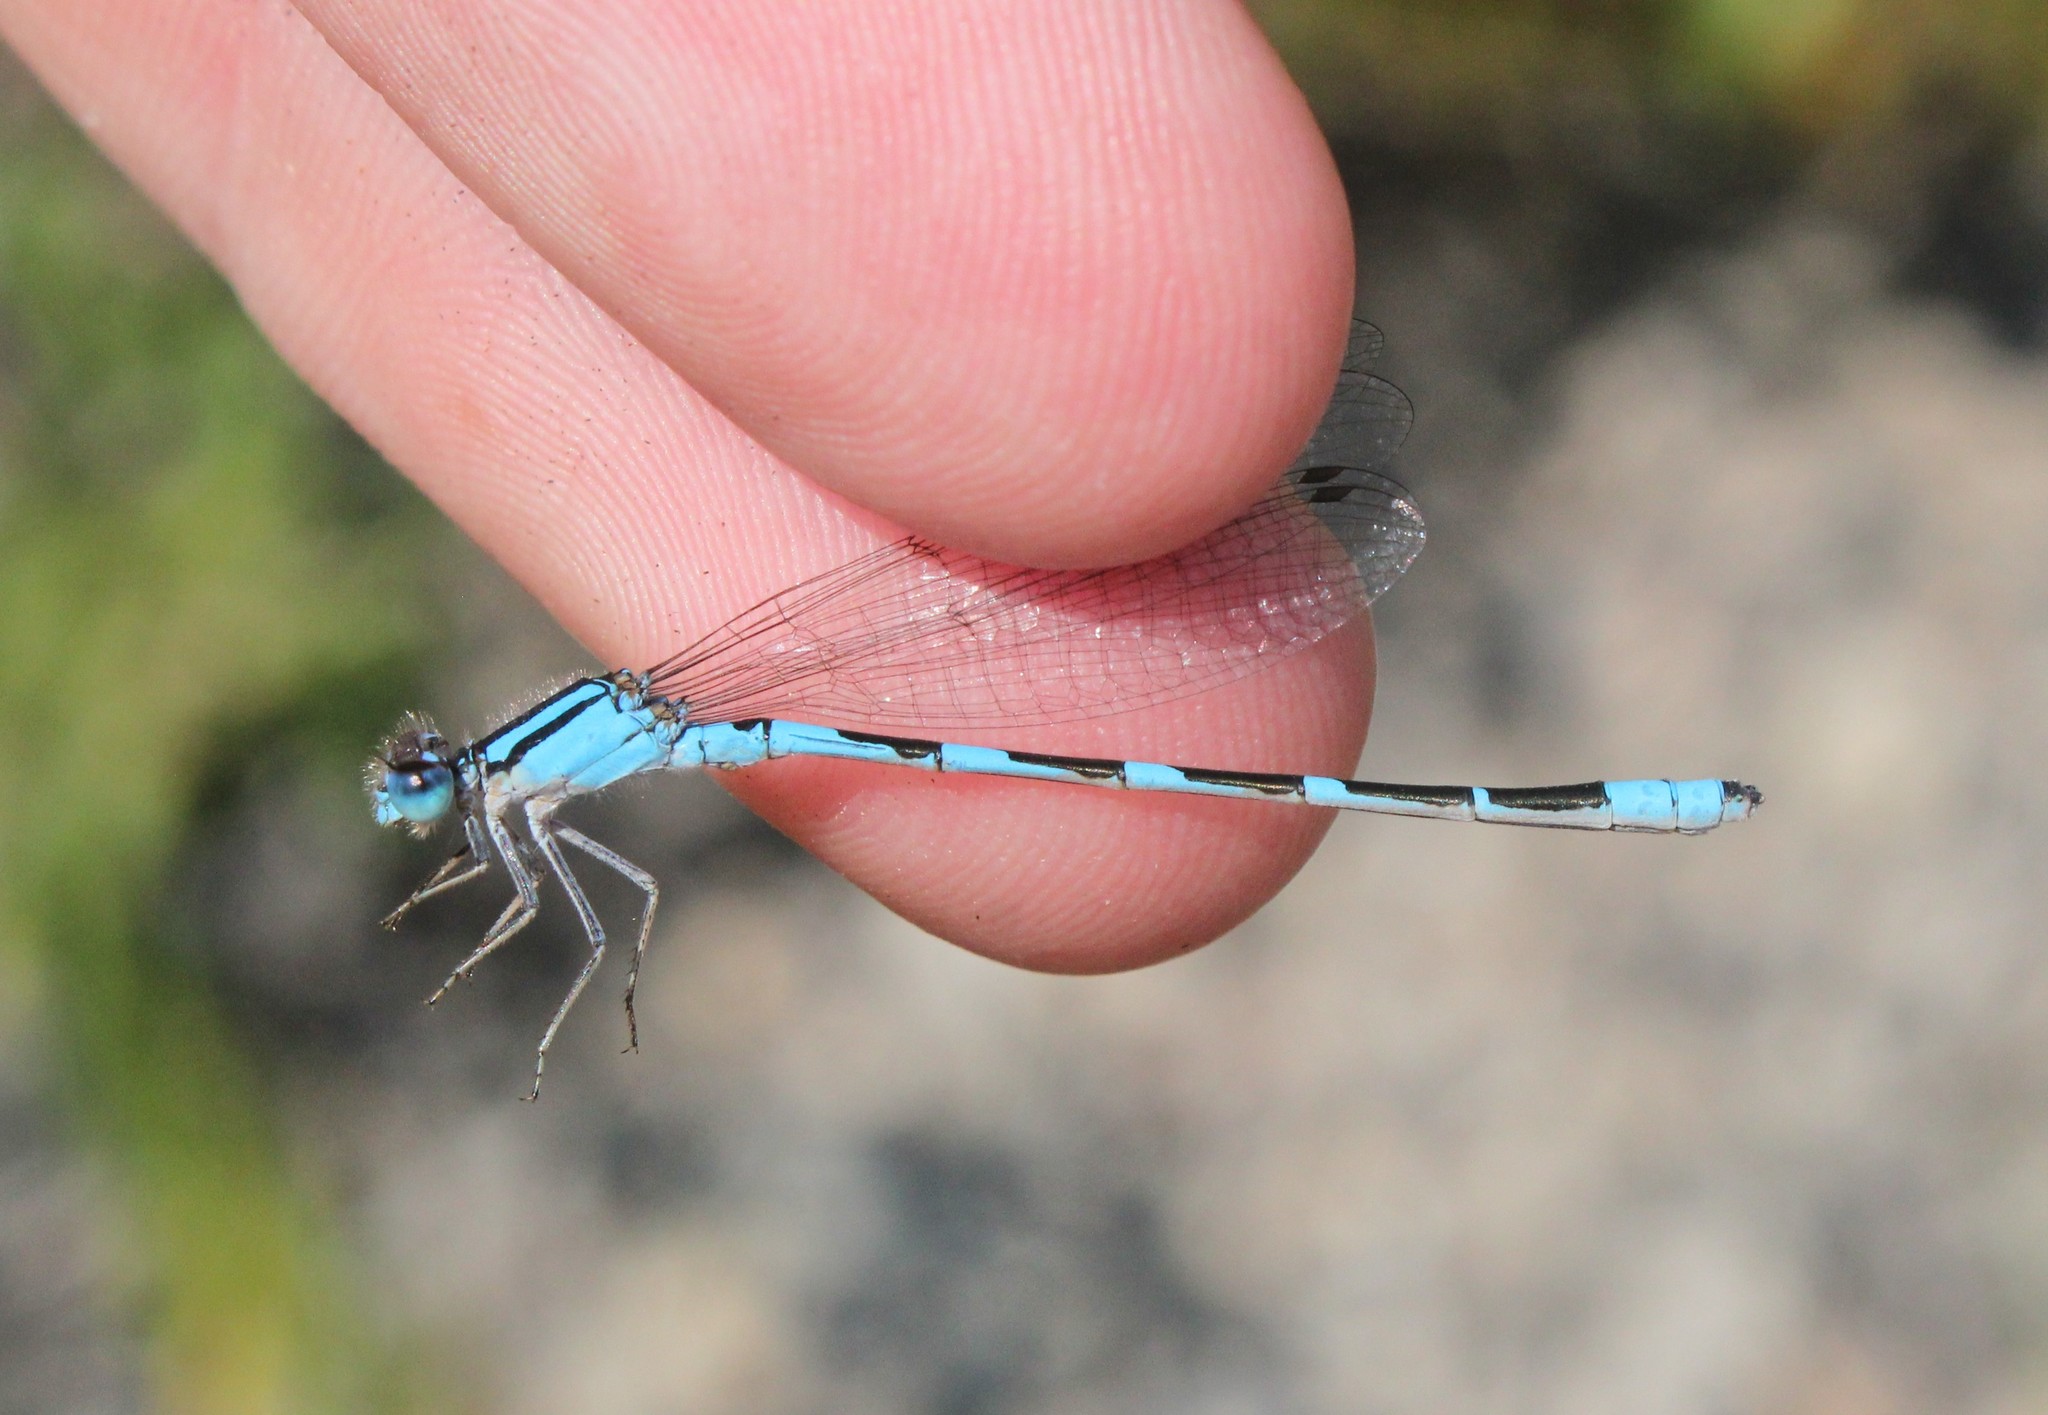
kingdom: Animalia
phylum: Arthropoda
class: Insecta
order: Odonata
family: Coenagrionidae
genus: Enallagma
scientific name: Enallagma carunculatum
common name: Tule bluet
